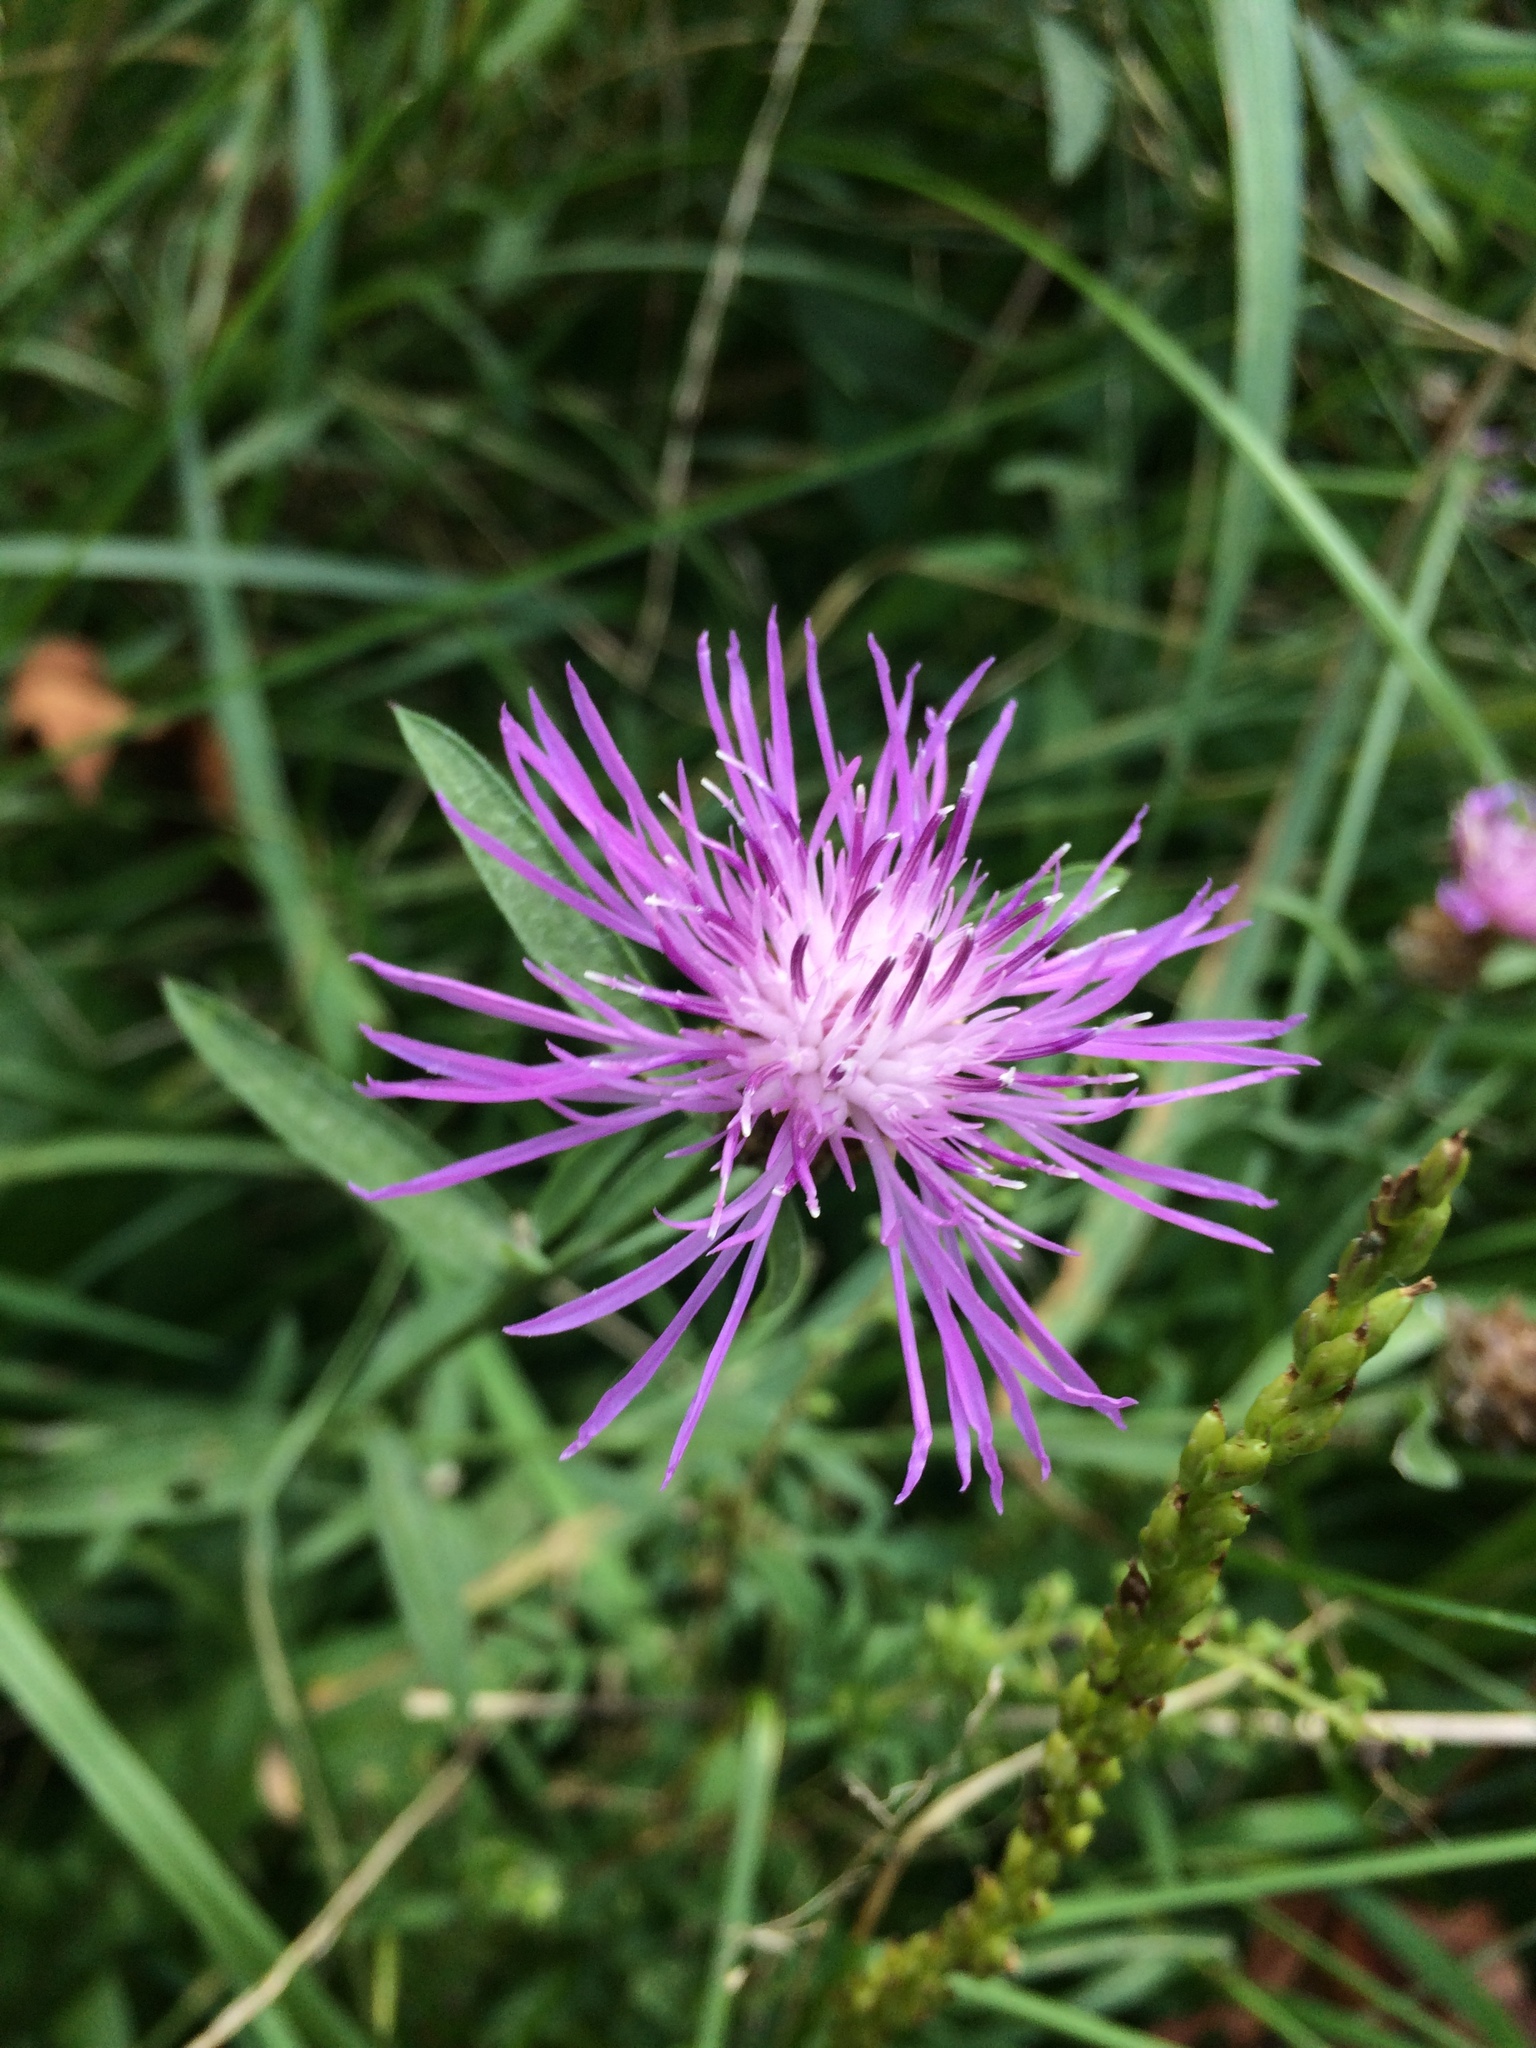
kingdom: Plantae
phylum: Tracheophyta
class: Magnoliopsida
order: Asterales
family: Asteraceae
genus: Centaurea
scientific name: Centaurea stoebe
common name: Spotted knapweed
